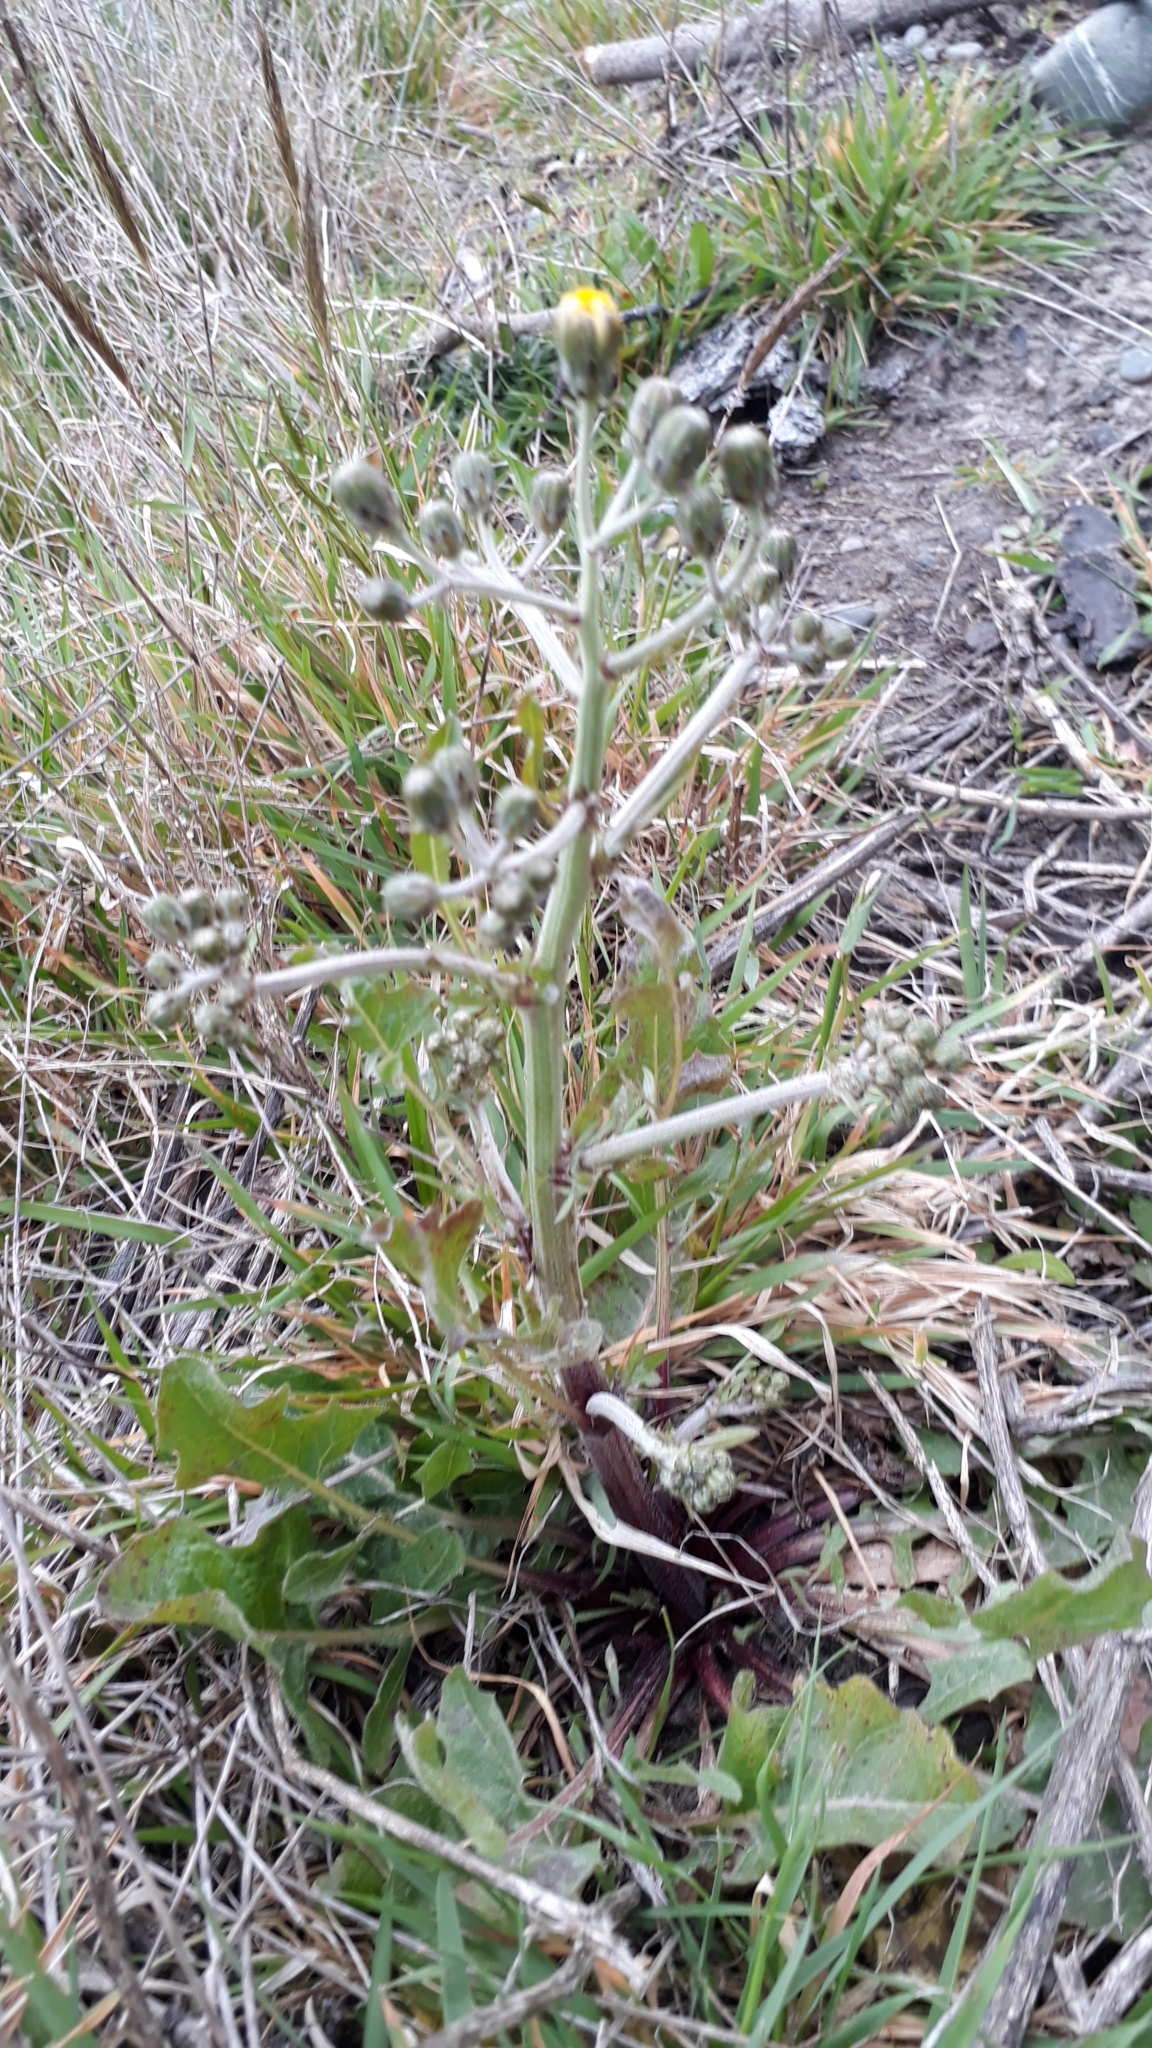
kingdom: Plantae
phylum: Tracheophyta
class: Magnoliopsida
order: Asterales
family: Asteraceae
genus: Crepis
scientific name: Crepis vesicaria
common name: Beaked hawksbeard
